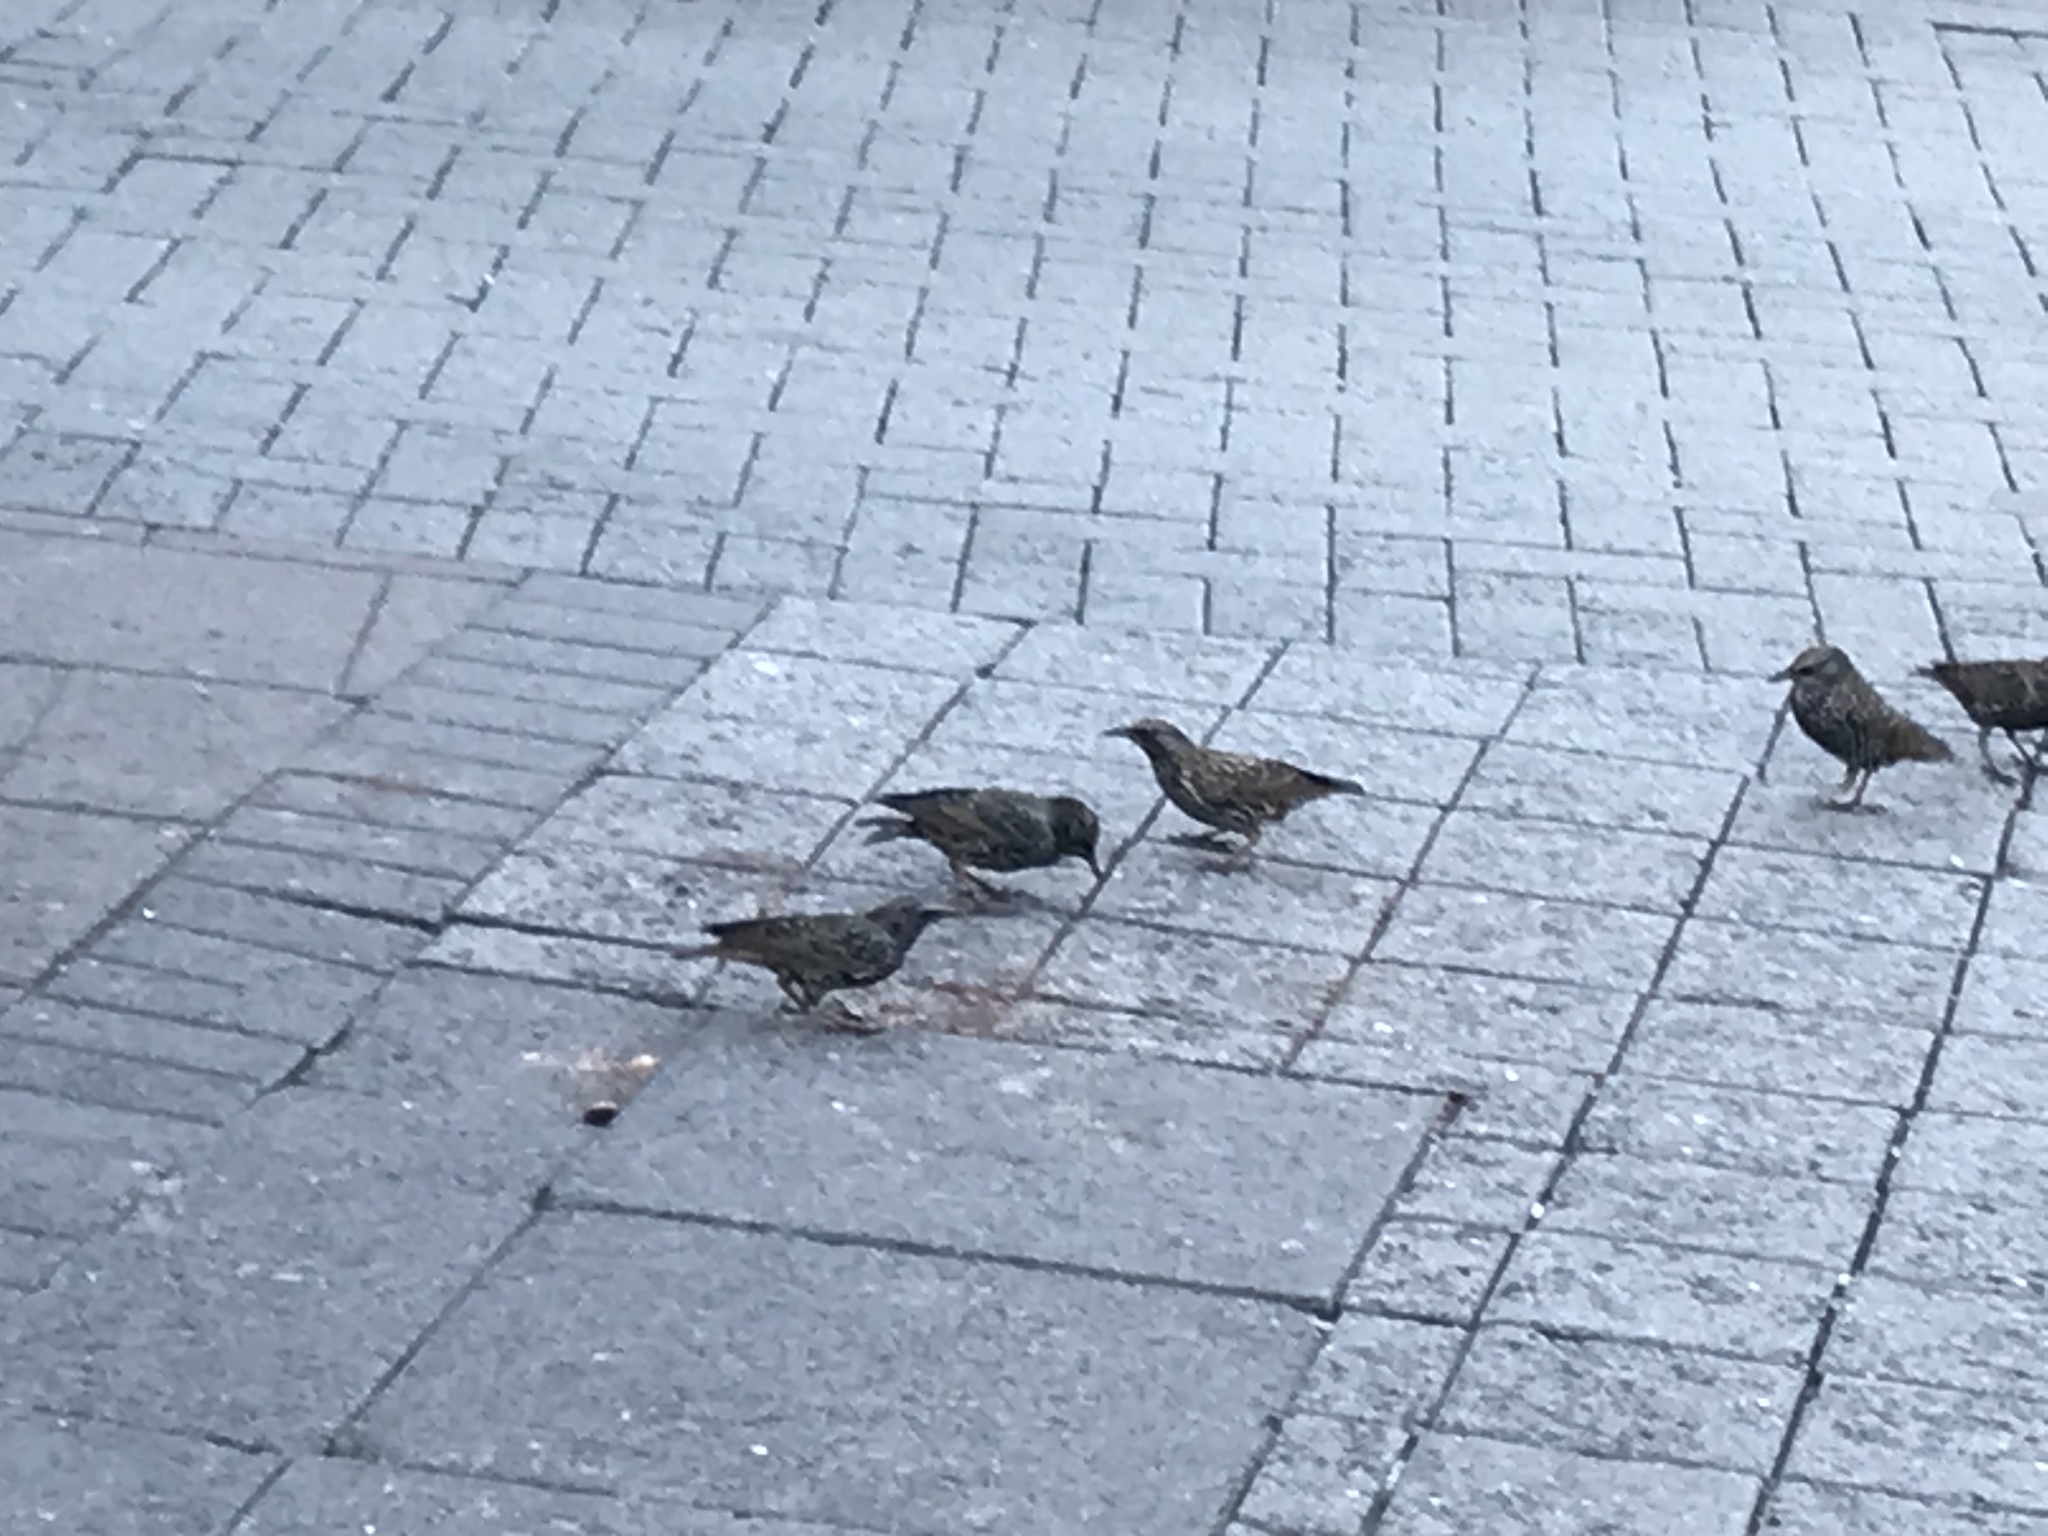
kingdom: Animalia
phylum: Chordata
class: Aves
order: Passeriformes
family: Sturnidae
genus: Sturnus
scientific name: Sturnus vulgaris
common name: Common starling
